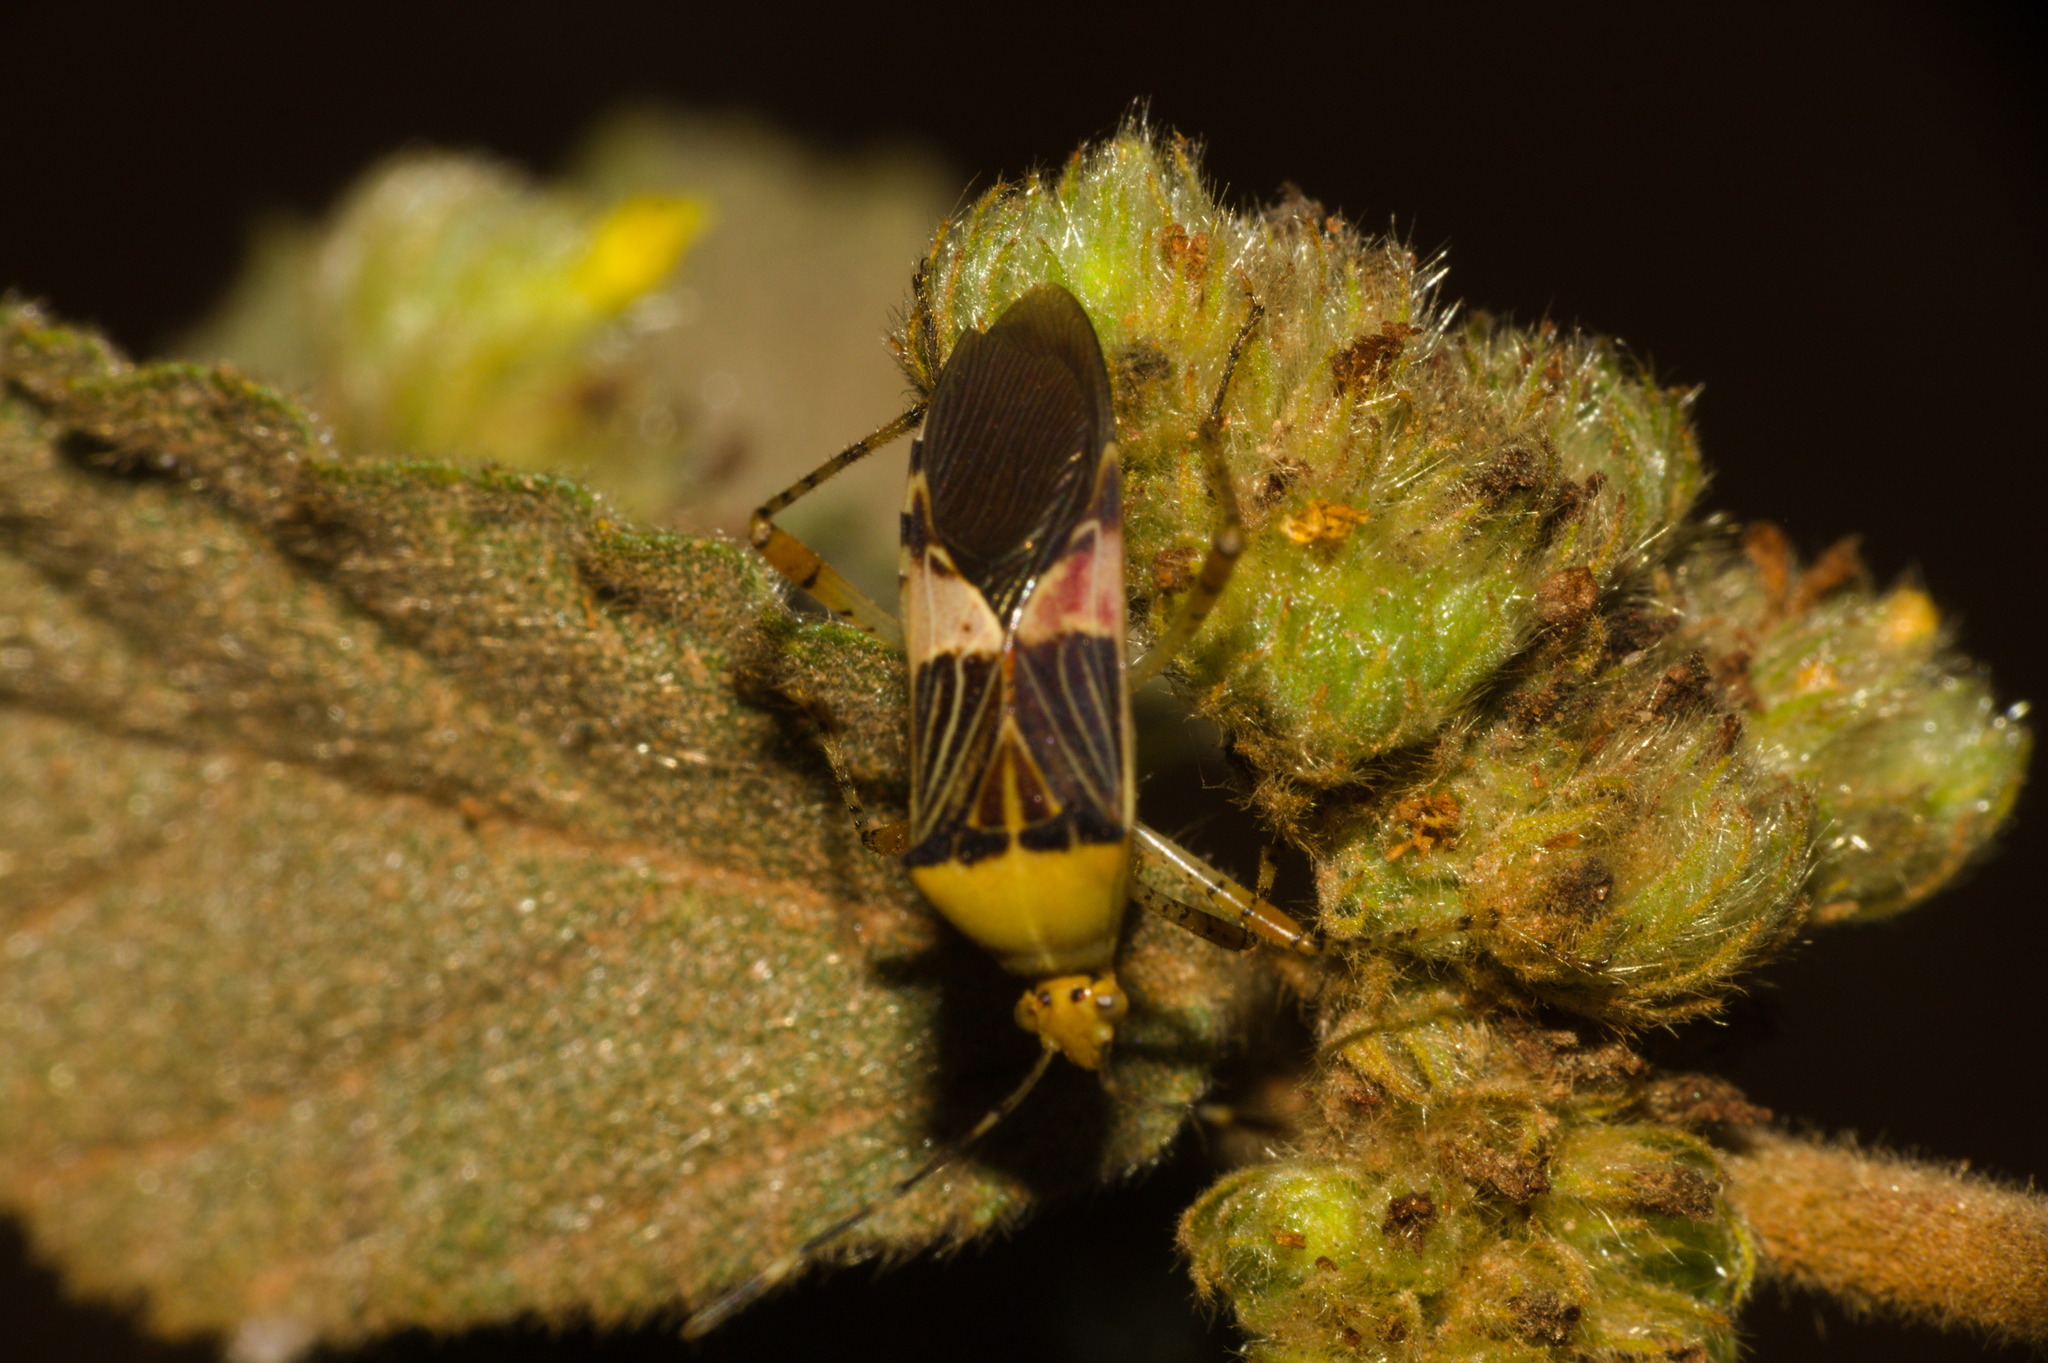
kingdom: Animalia
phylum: Arthropoda
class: Insecta
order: Hemiptera
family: Coreidae
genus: Hypselonotus
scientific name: Hypselonotus fulvus
